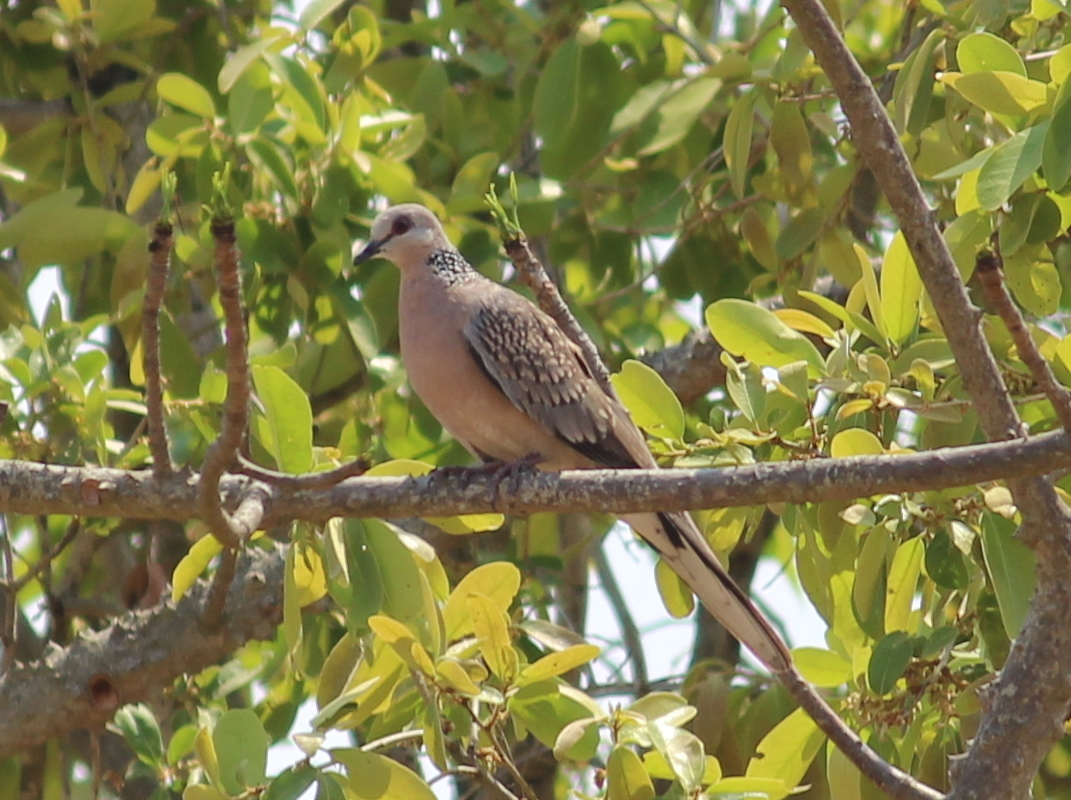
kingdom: Animalia
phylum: Chordata
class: Aves
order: Columbiformes
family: Columbidae
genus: Spilopelia
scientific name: Spilopelia chinensis
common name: Spotted dove
